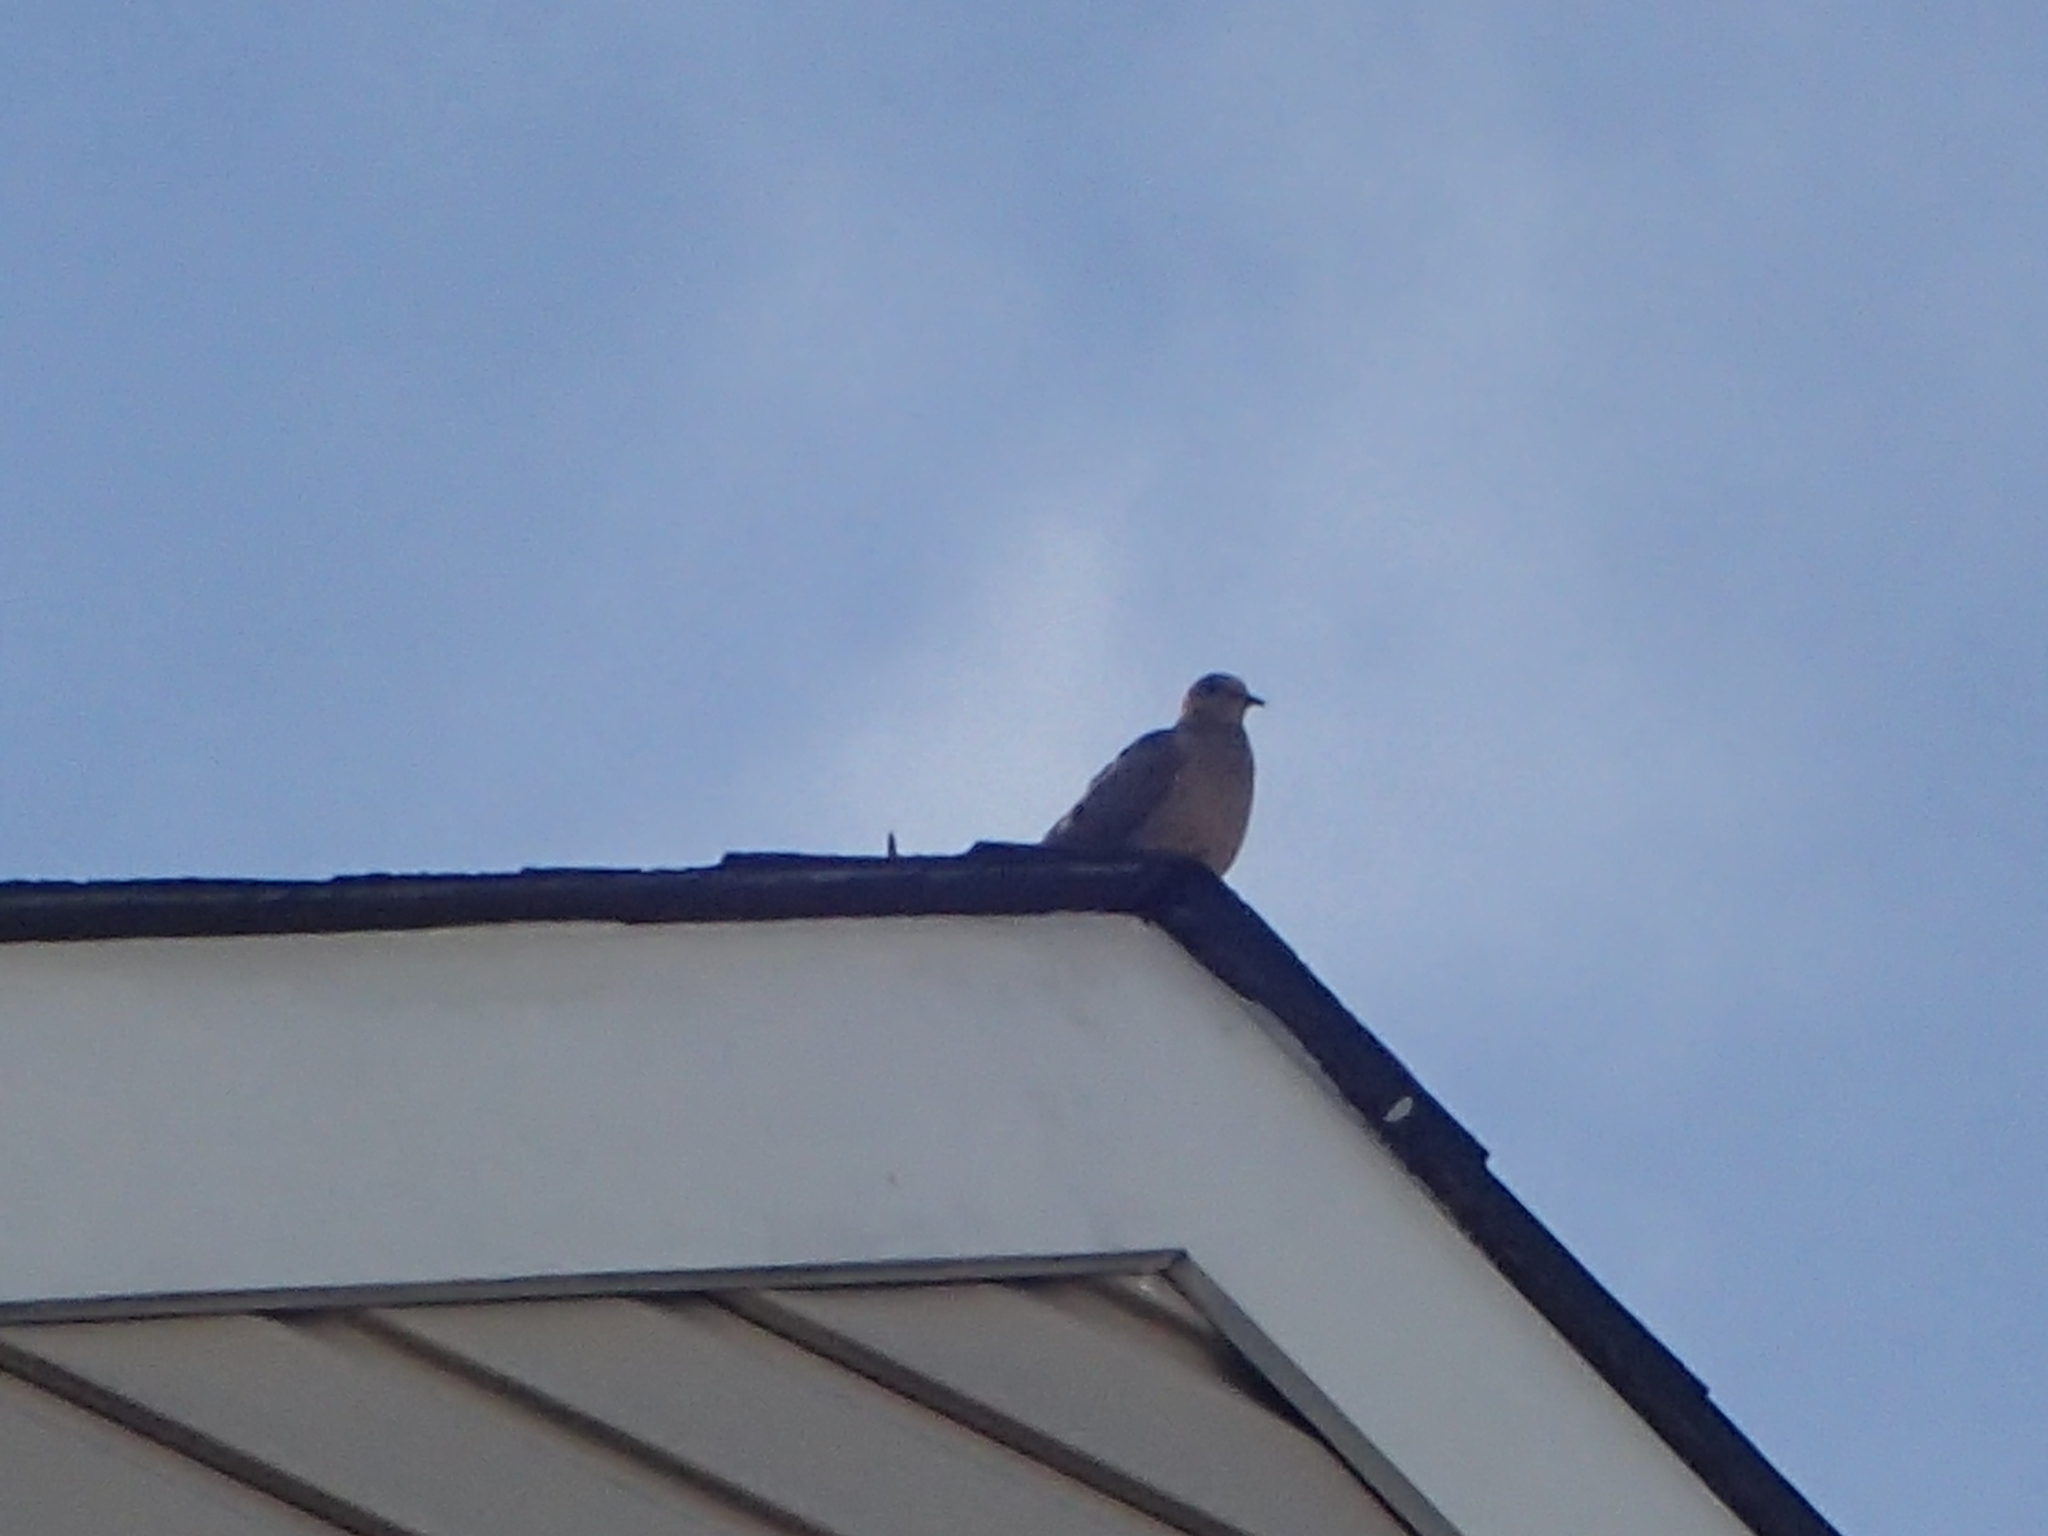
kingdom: Animalia
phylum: Chordata
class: Aves
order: Columbiformes
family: Columbidae
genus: Zenaida
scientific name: Zenaida macroura
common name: Mourning dove
